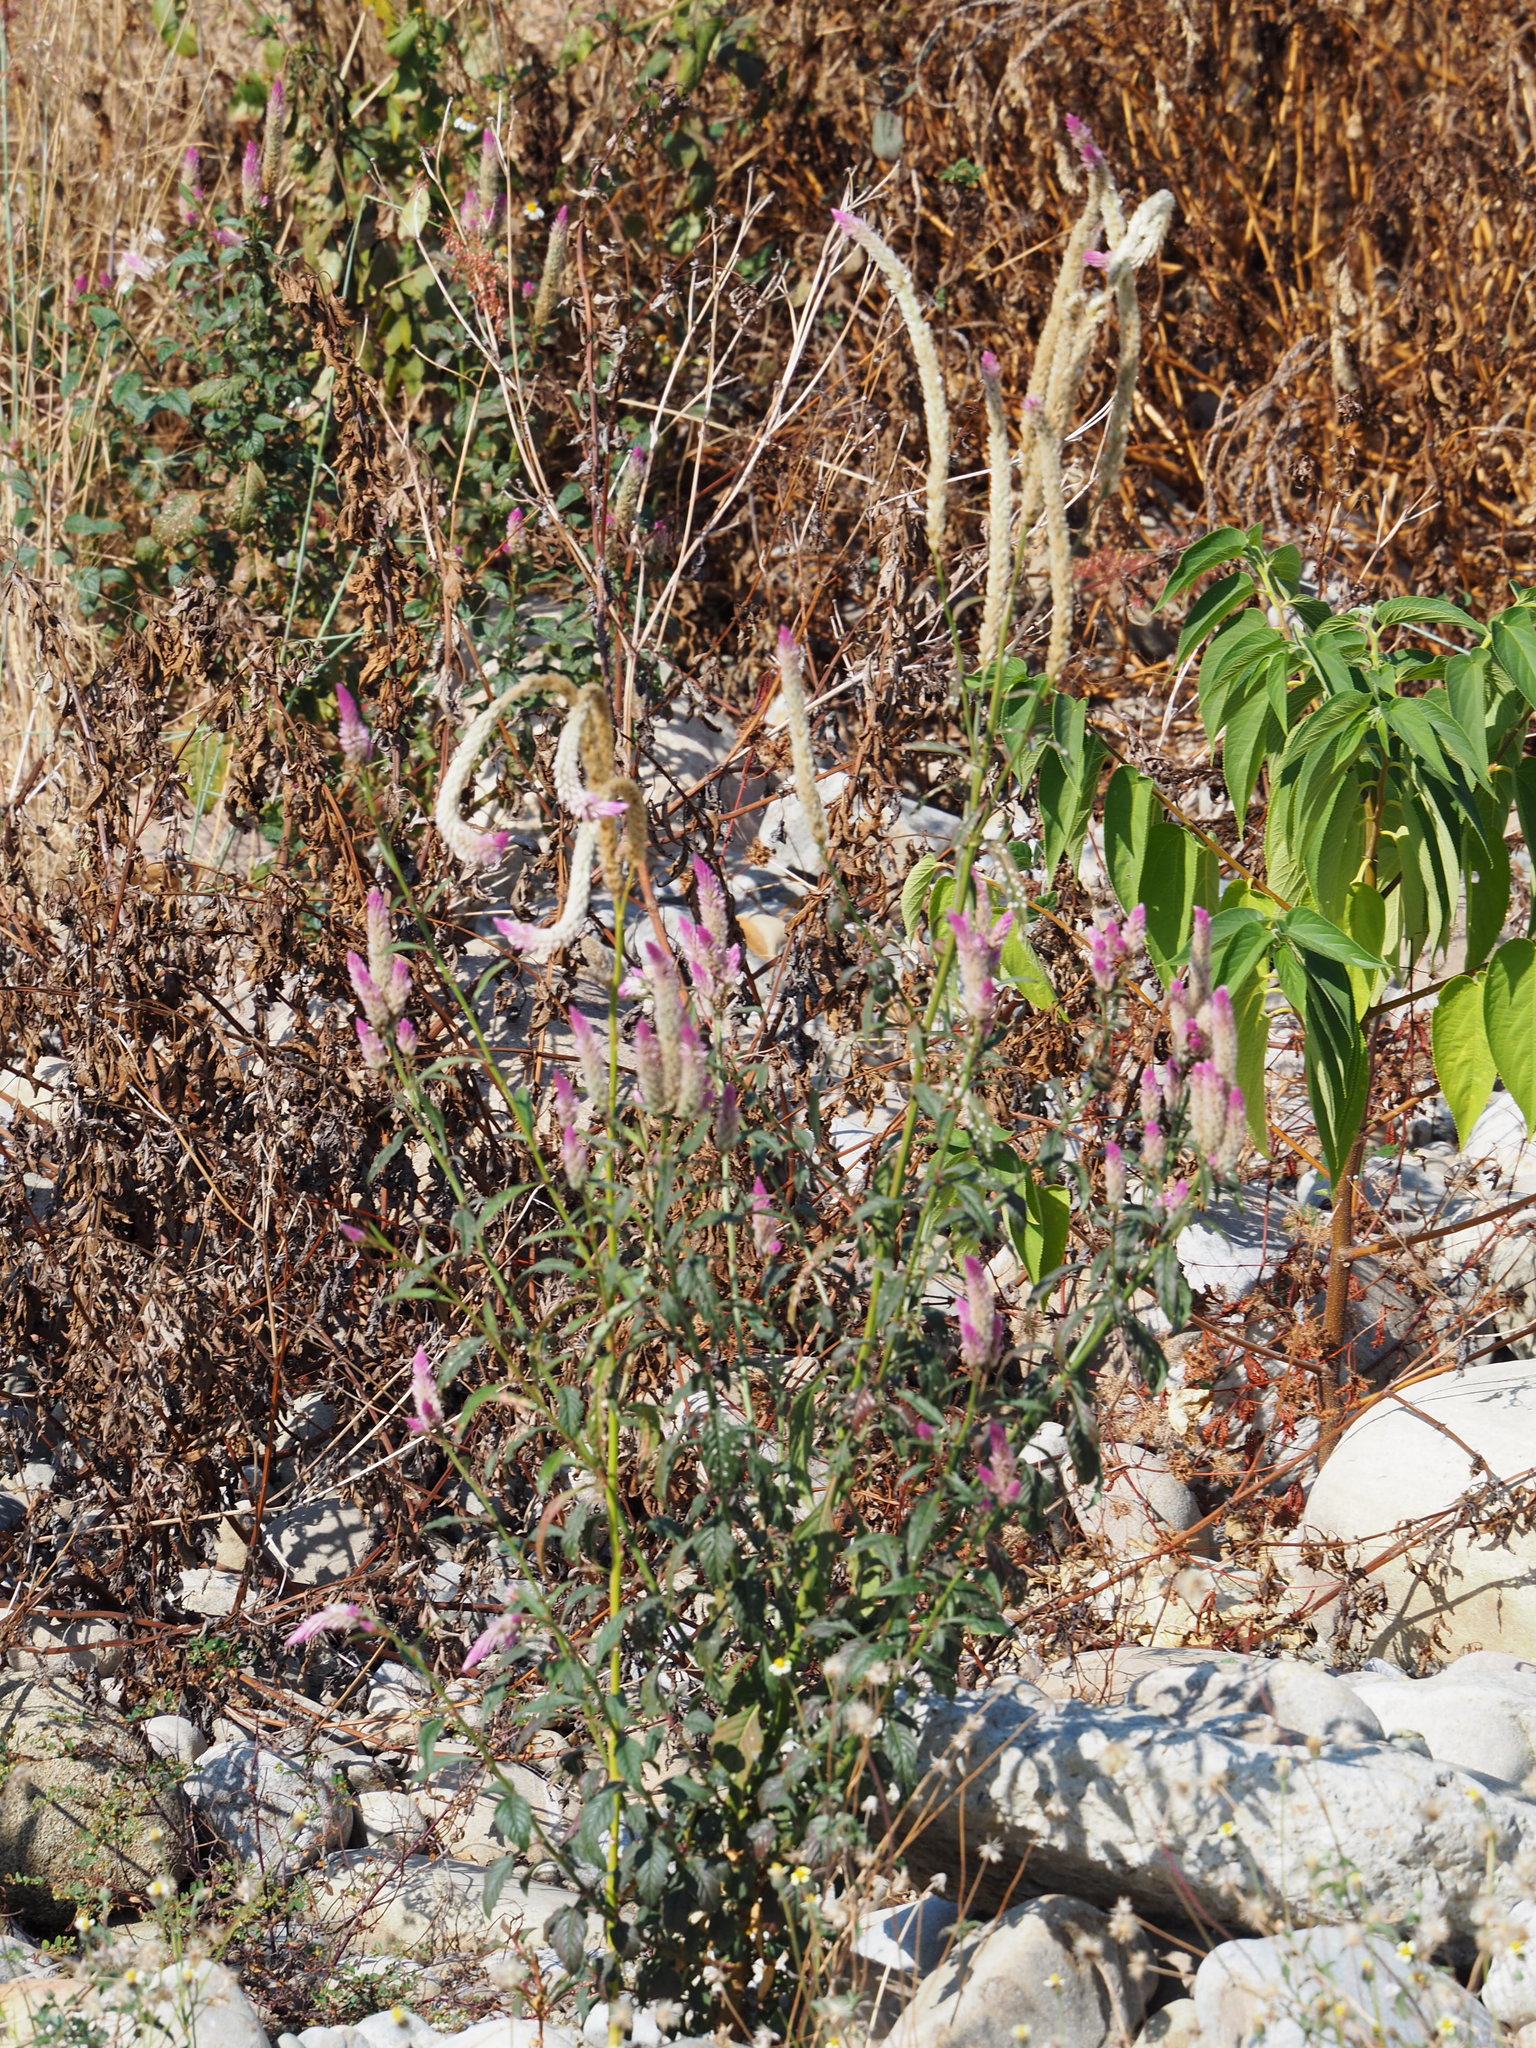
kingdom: Plantae
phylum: Tracheophyta
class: Magnoliopsida
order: Caryophyllales
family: Amaranthaceae
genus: Celosia
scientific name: Celosia argentea
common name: Feather cockscomb
